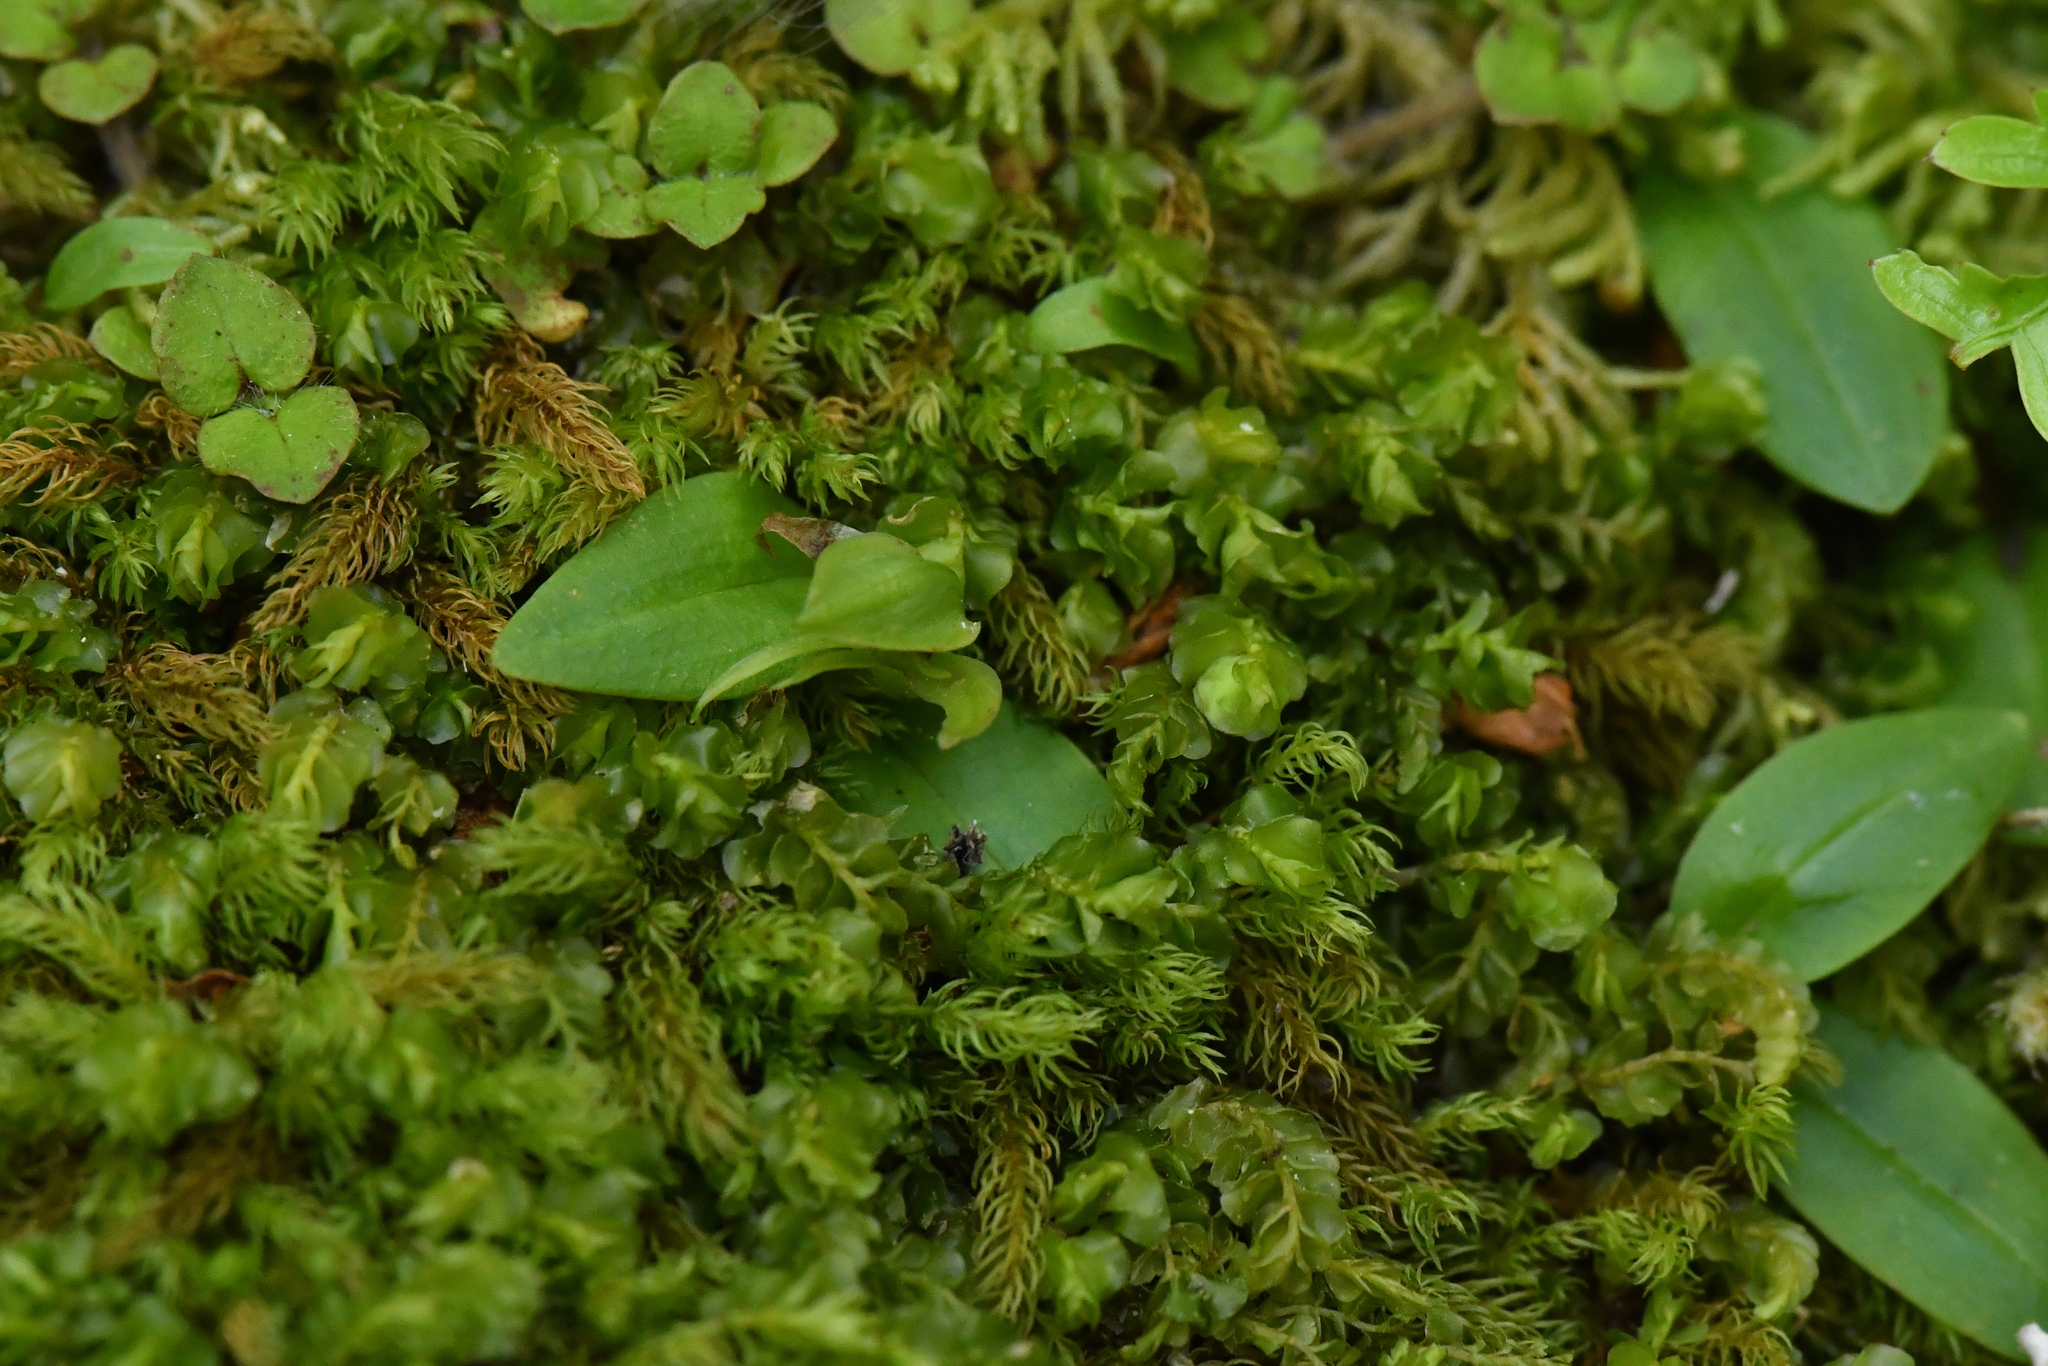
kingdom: Plantae
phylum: Tracheophyta
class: Liliopsida
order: Asparagales
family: Orchidaceae
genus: Chiloglottis
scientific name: Chiloglottis cornuta
